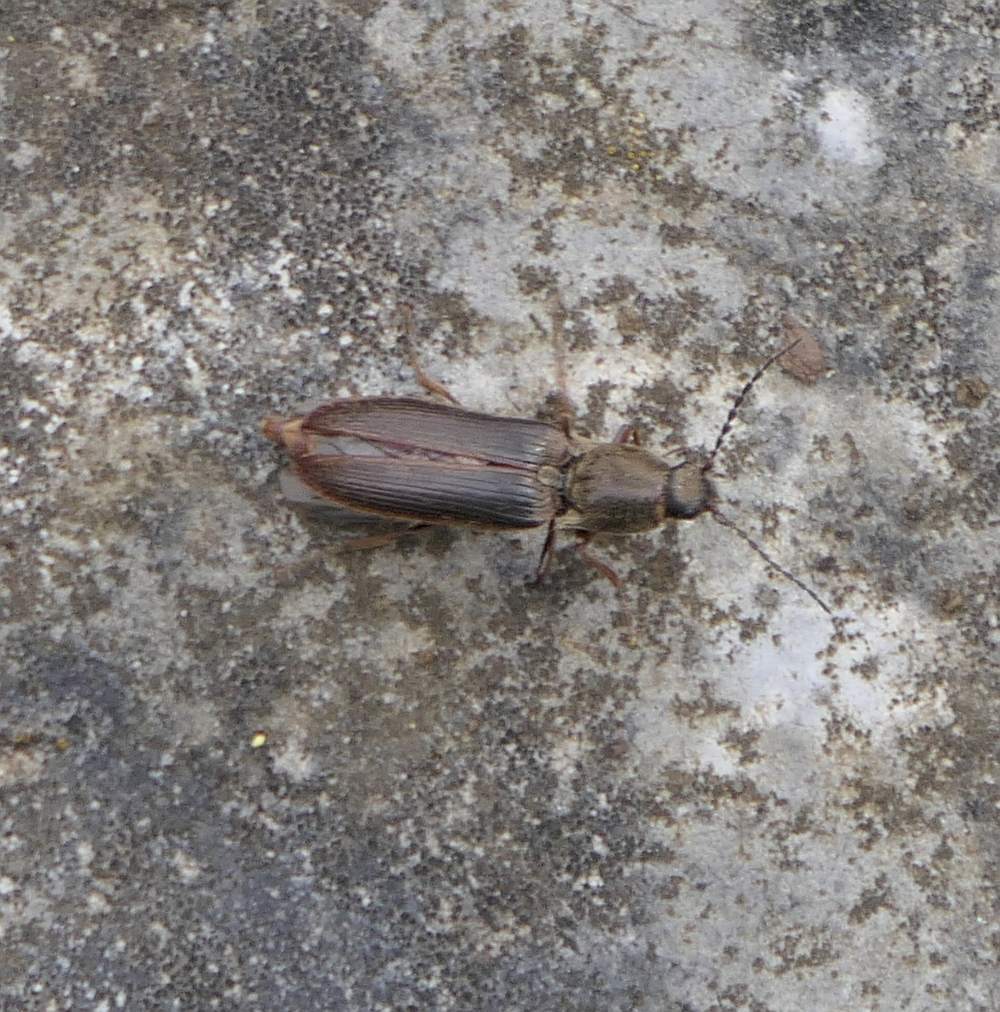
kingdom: Animalia
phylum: Arthropoda
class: Insecta
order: Coleoptera
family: Elateridae
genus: Sylvanelater
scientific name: Sylvanelater cylindriformis
